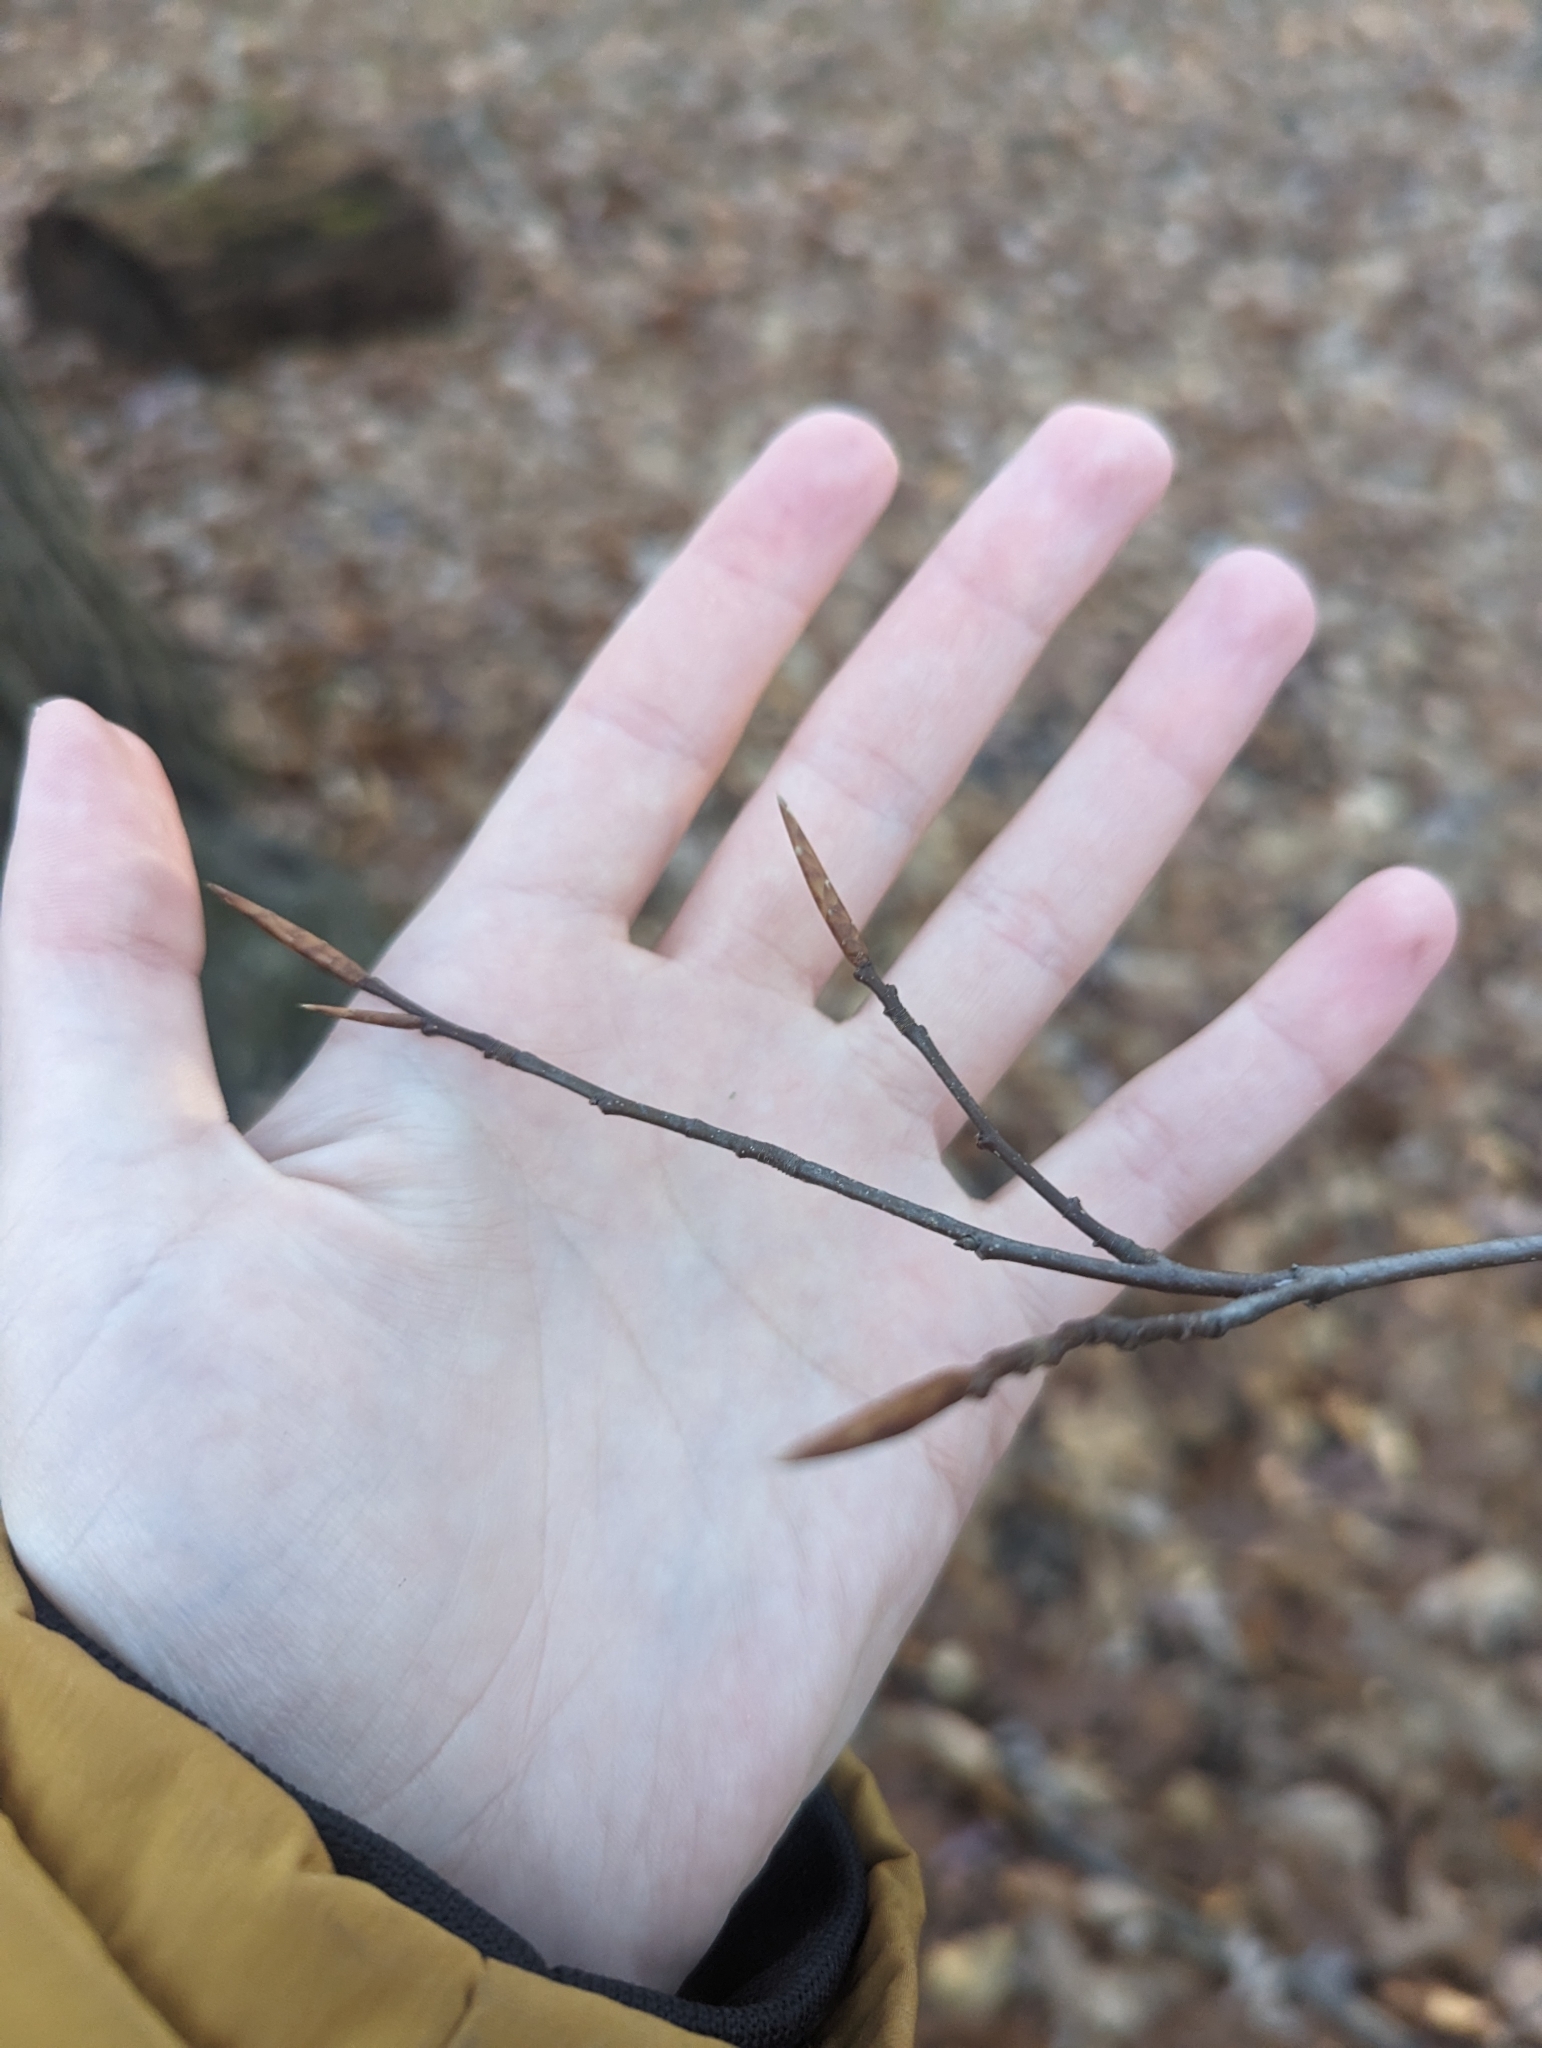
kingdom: Plantae
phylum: Tracheophyta
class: Magnoliopsida
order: Fagales
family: Fagaceae
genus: Fagus
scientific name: Fagus grandifolia
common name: American beech
